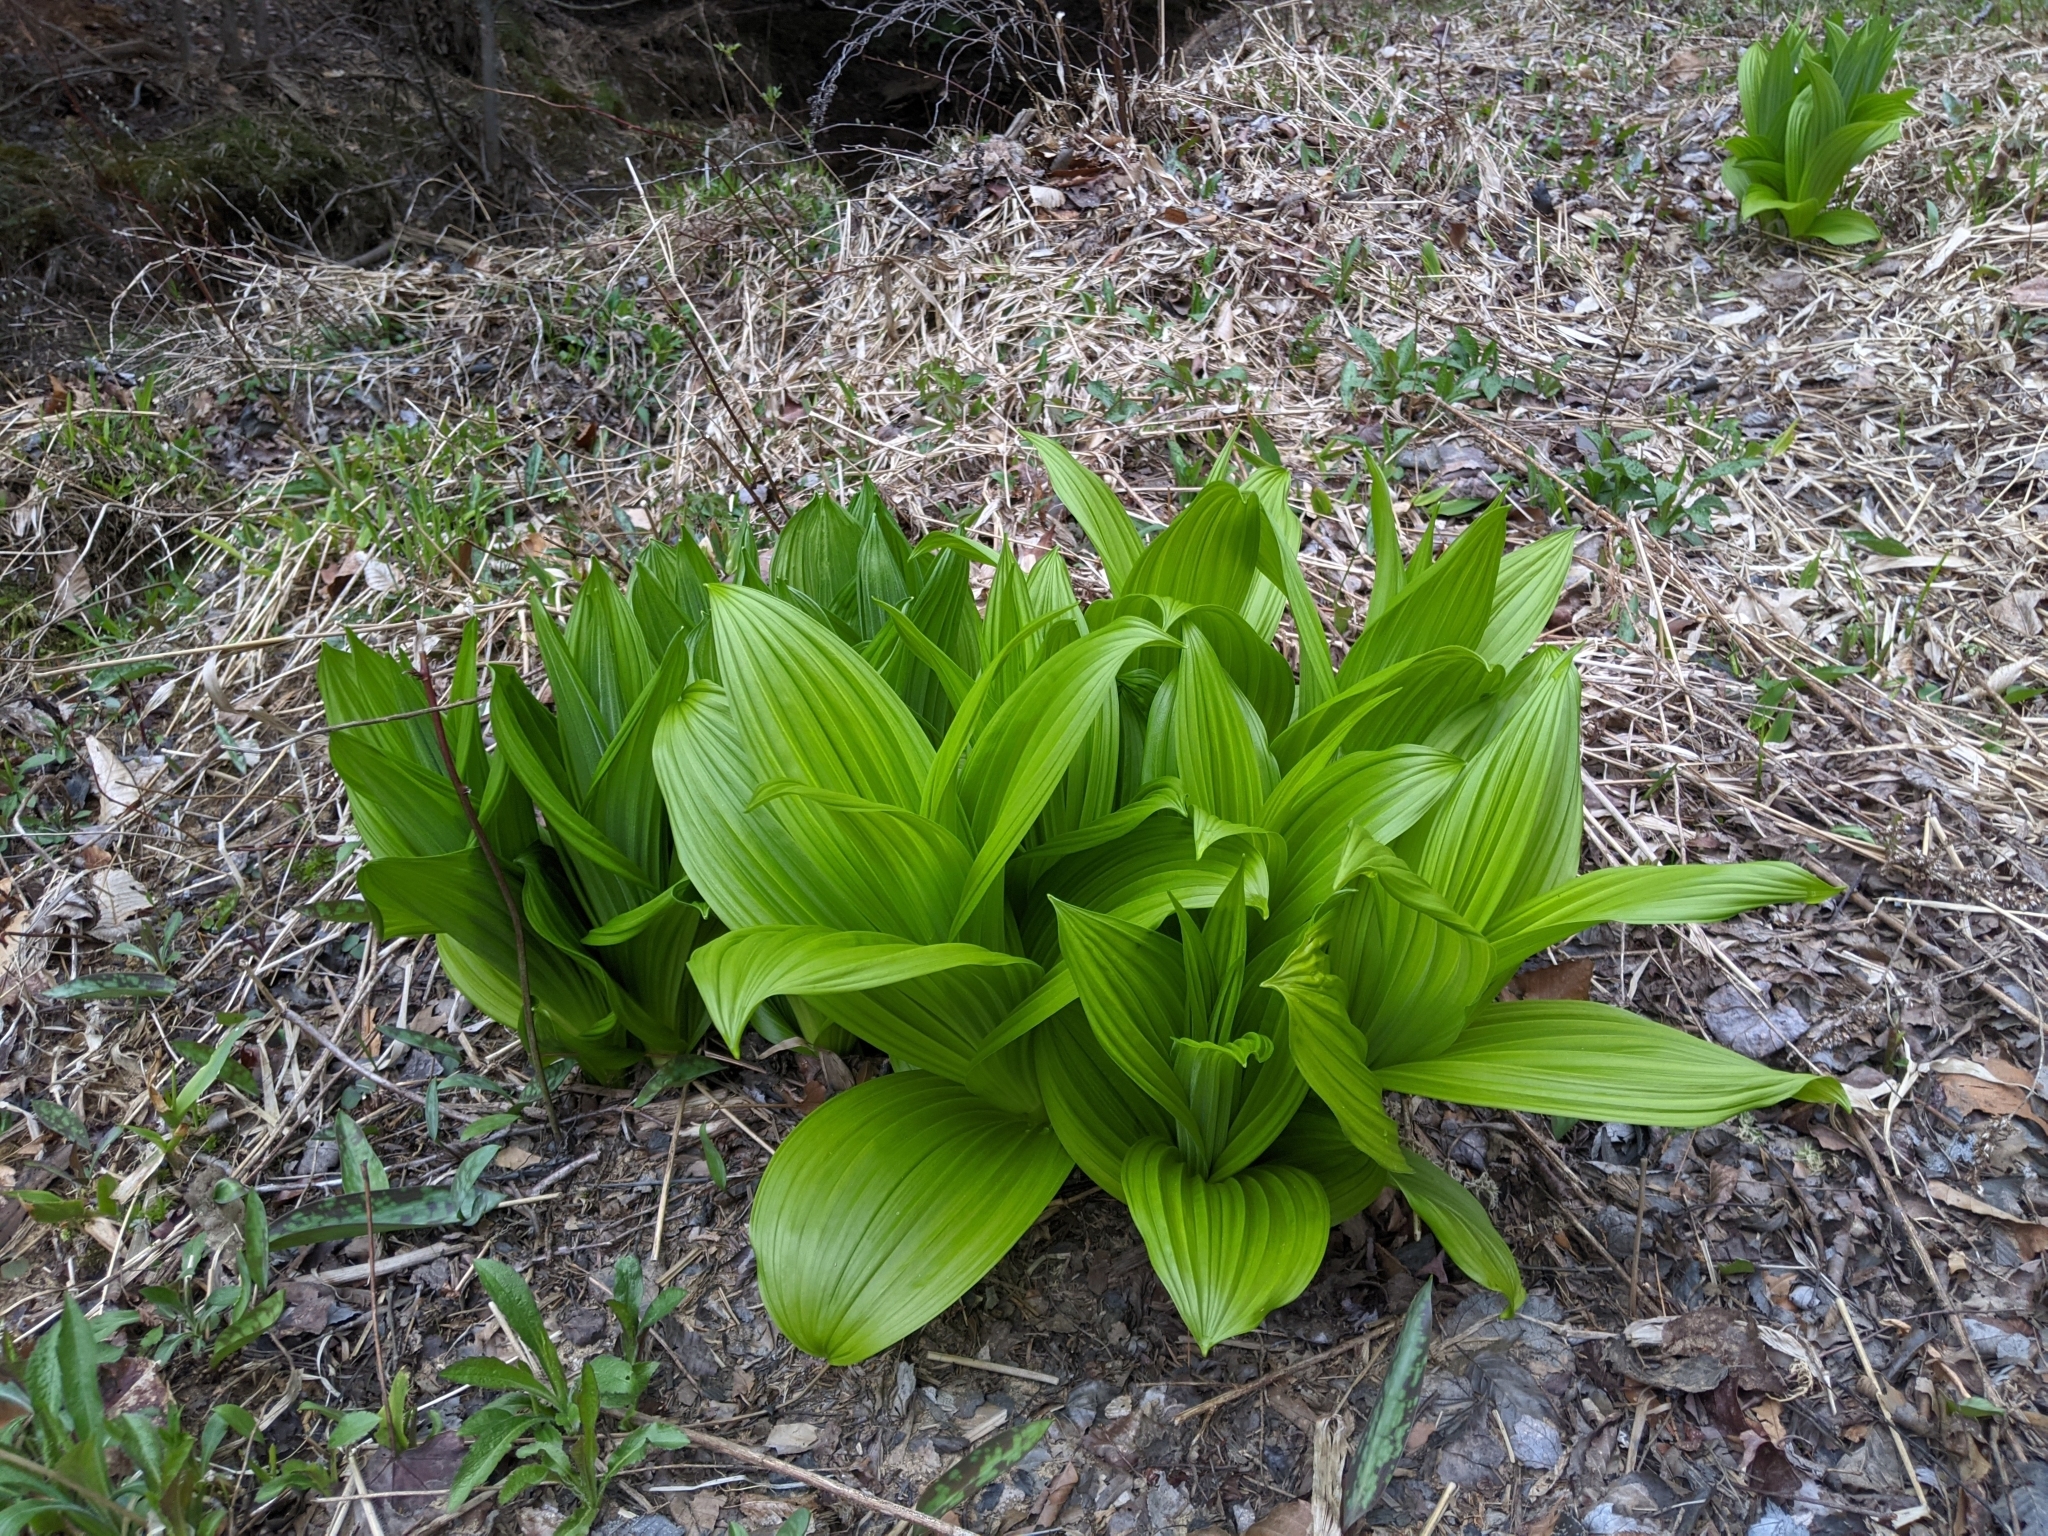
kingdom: Plantae
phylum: Tracheophyta
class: Liliopsida
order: Liliales
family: Melanthiaceae
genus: Veratrum
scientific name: Veratrum viride
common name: American false hellebore
